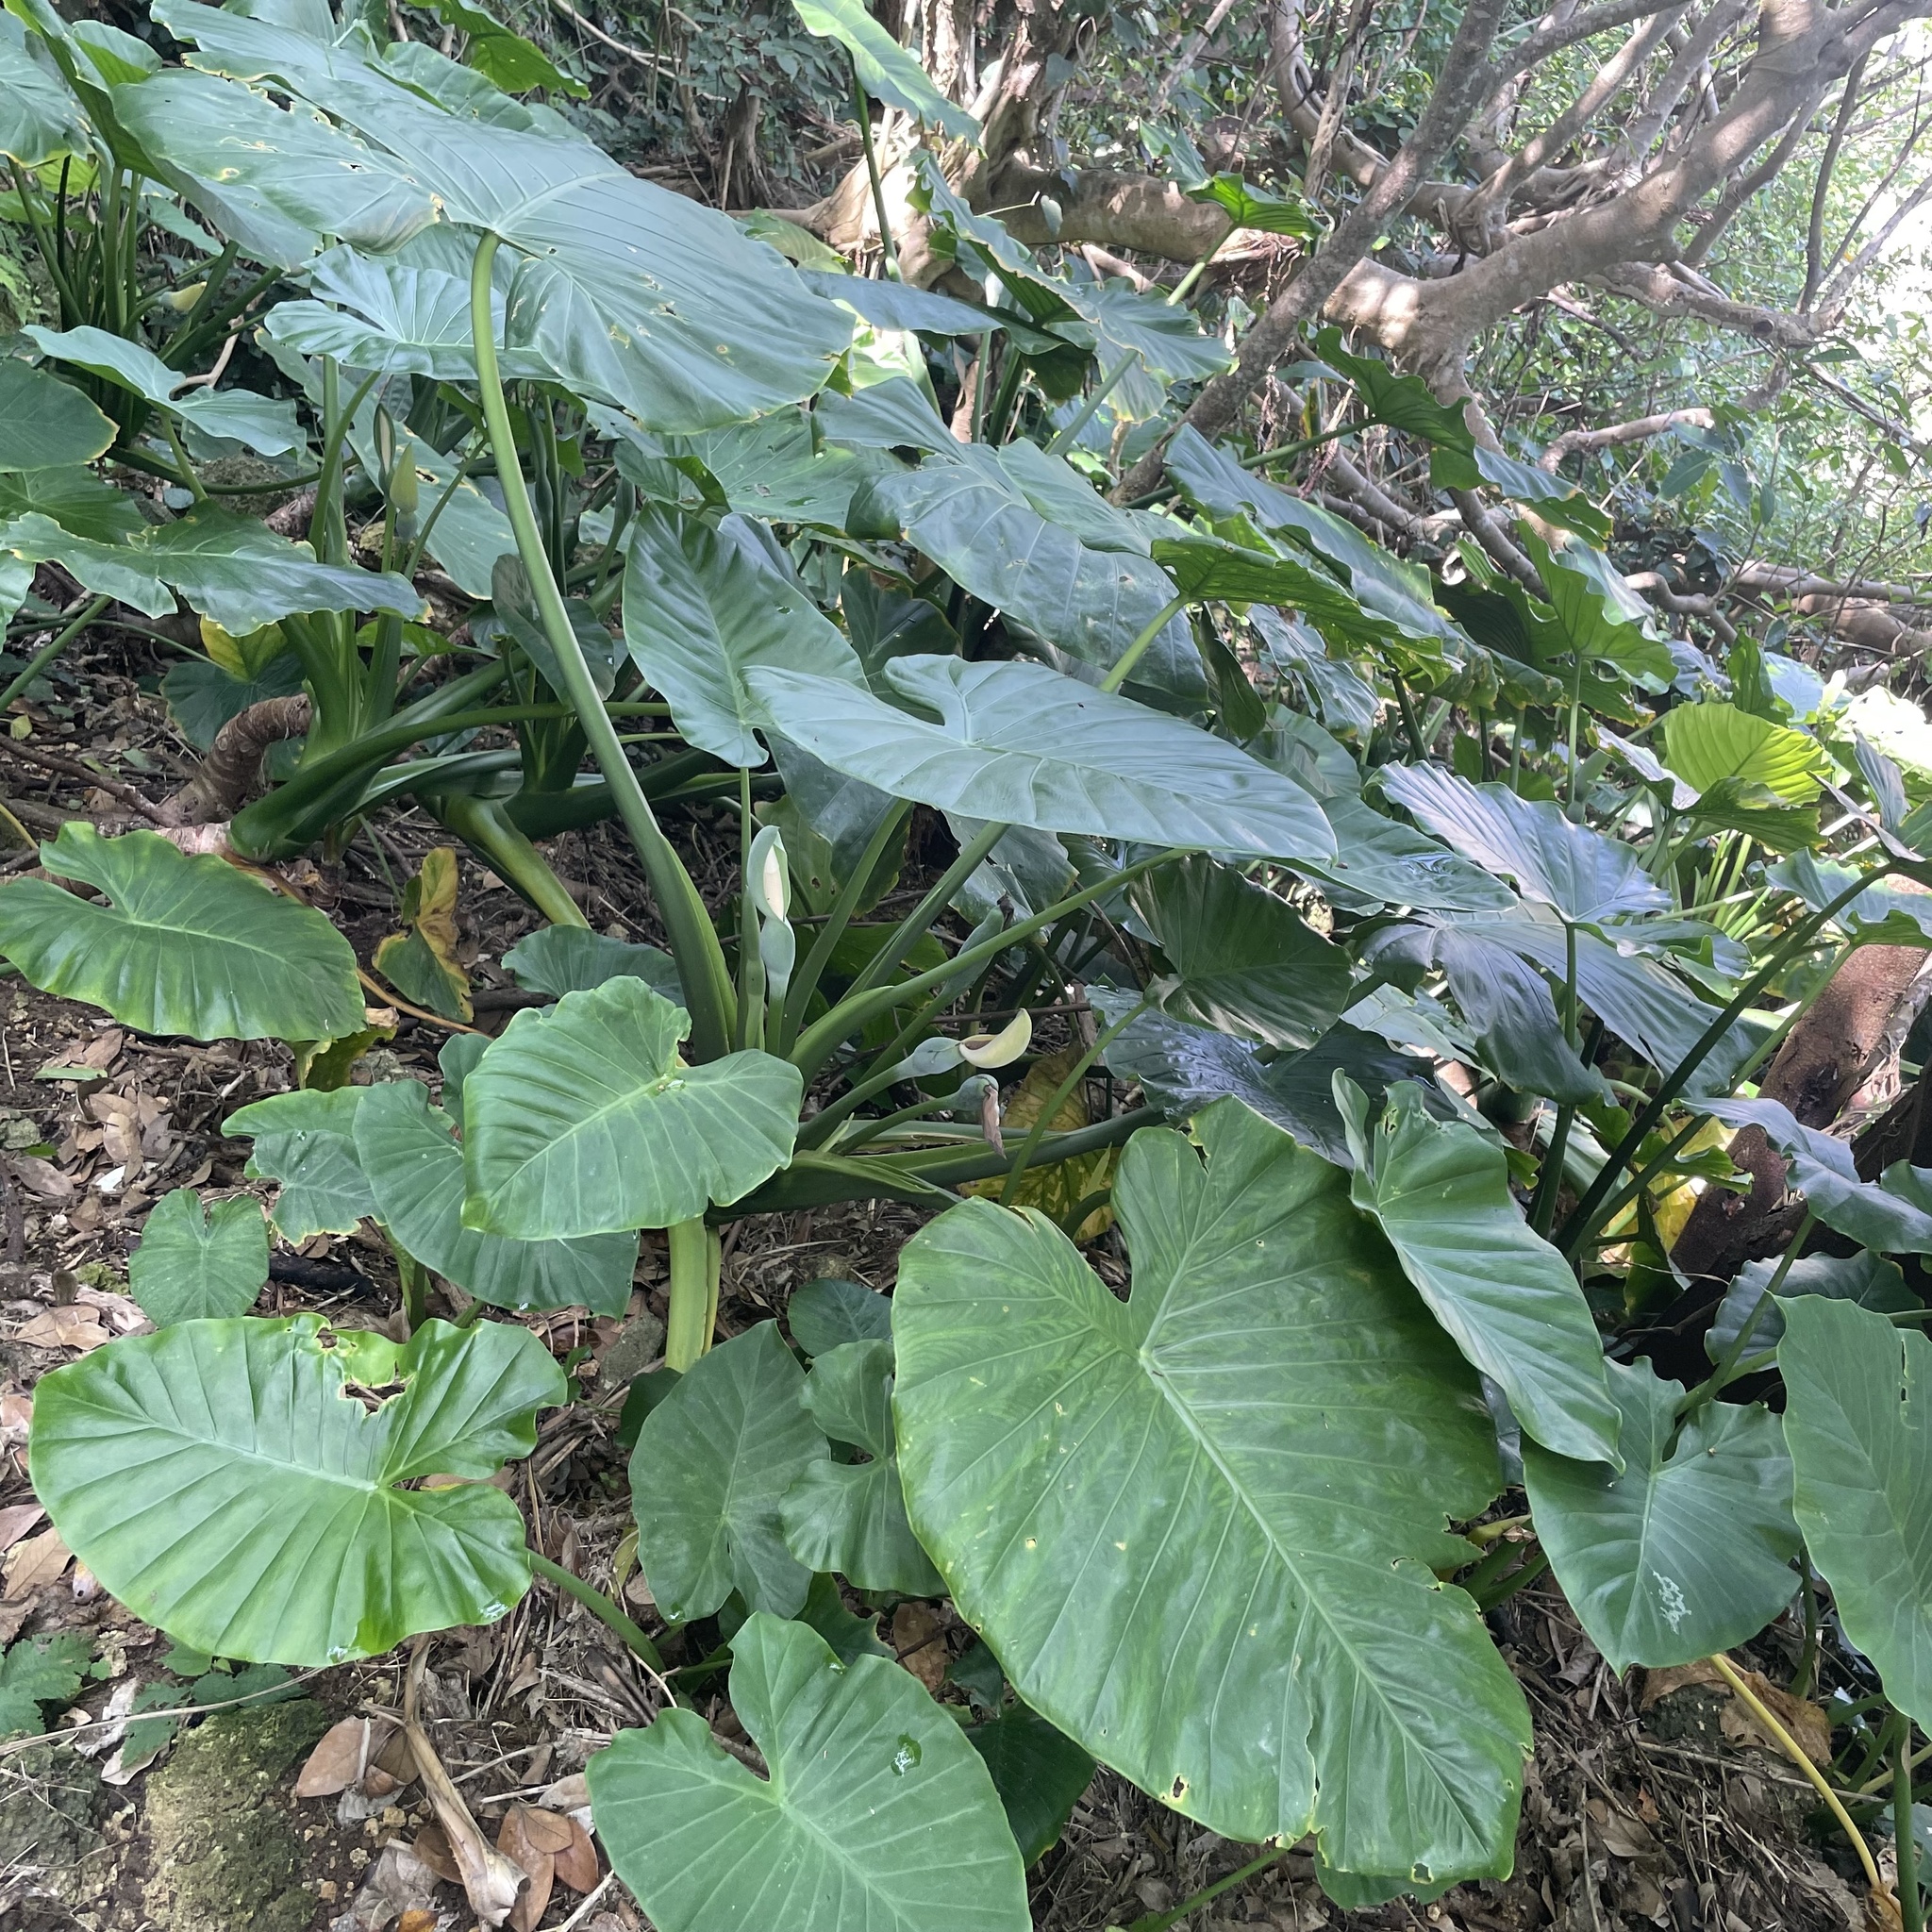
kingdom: Plantae
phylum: Tracheophyta
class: Liliopsida
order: Alismatales
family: Araceae
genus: Alocasia
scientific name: Alocasia odora
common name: Asian taro
